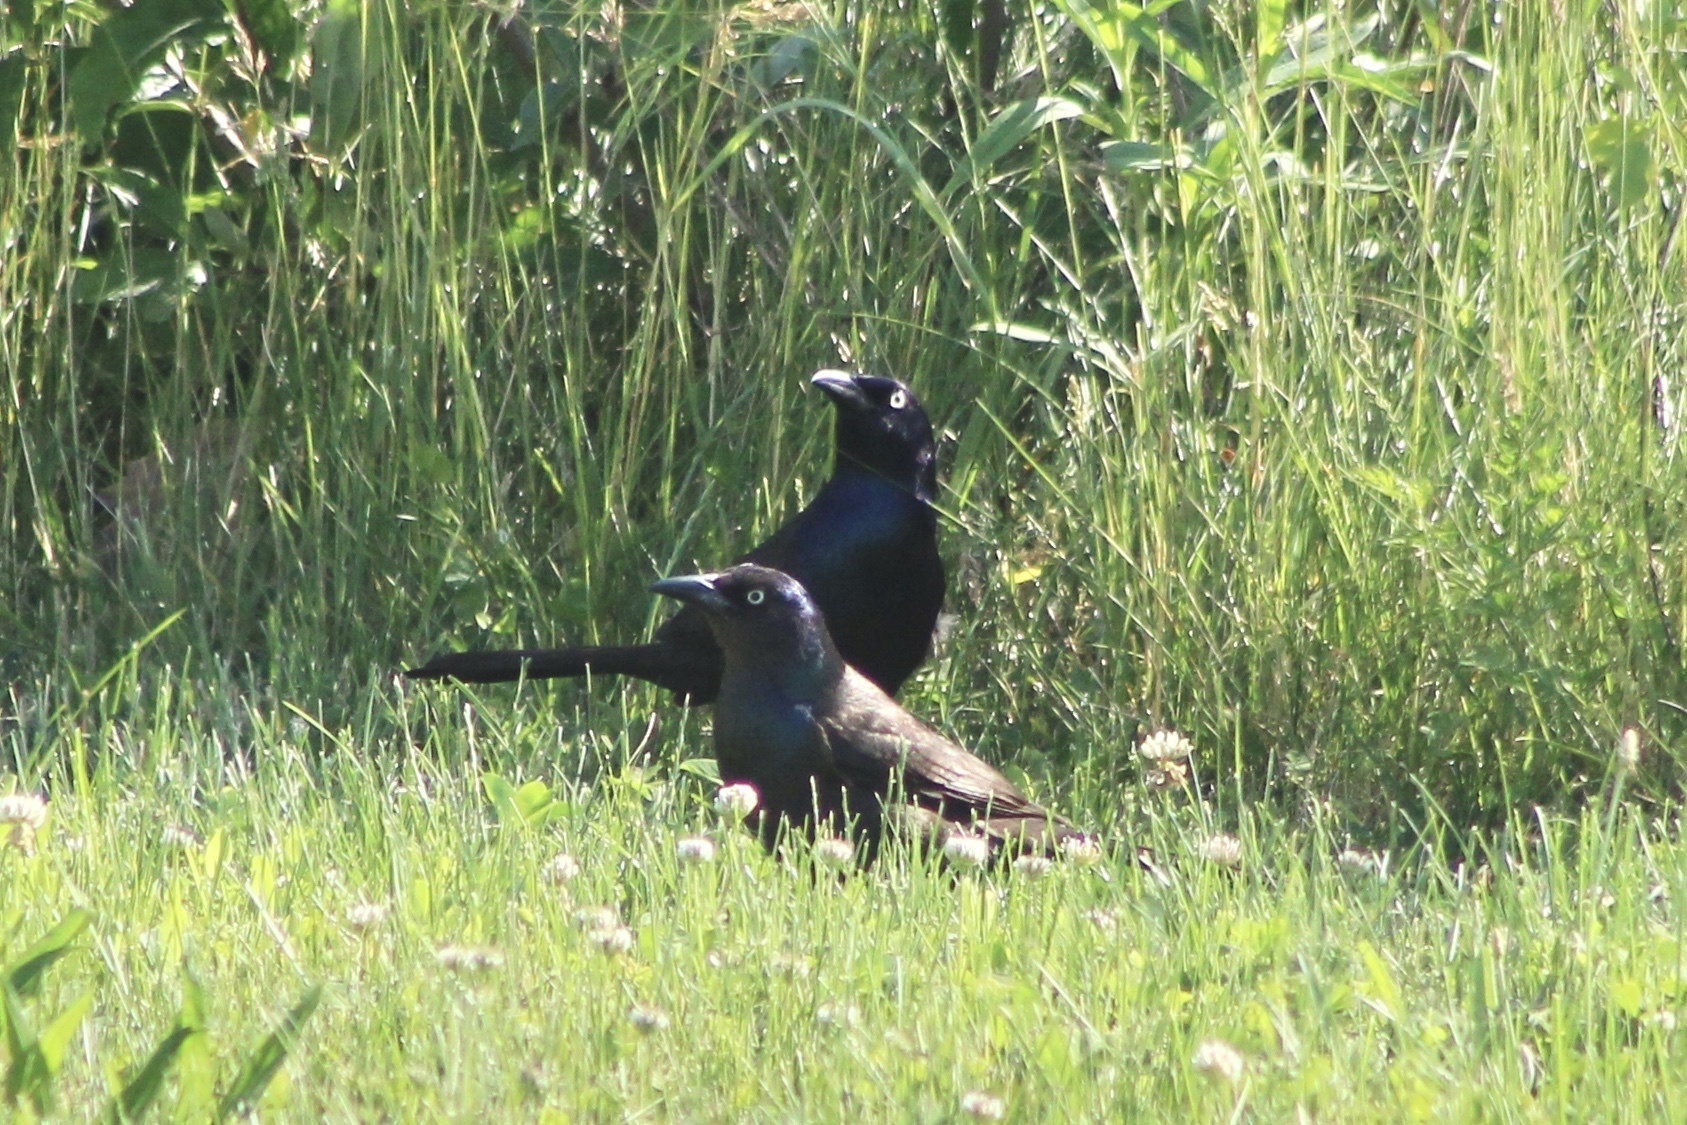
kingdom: Animalia
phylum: Chordata
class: Aves
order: Passeriformes
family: Icteridae
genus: Quiscalus
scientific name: Quiscalus quiscula
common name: Common grackle
